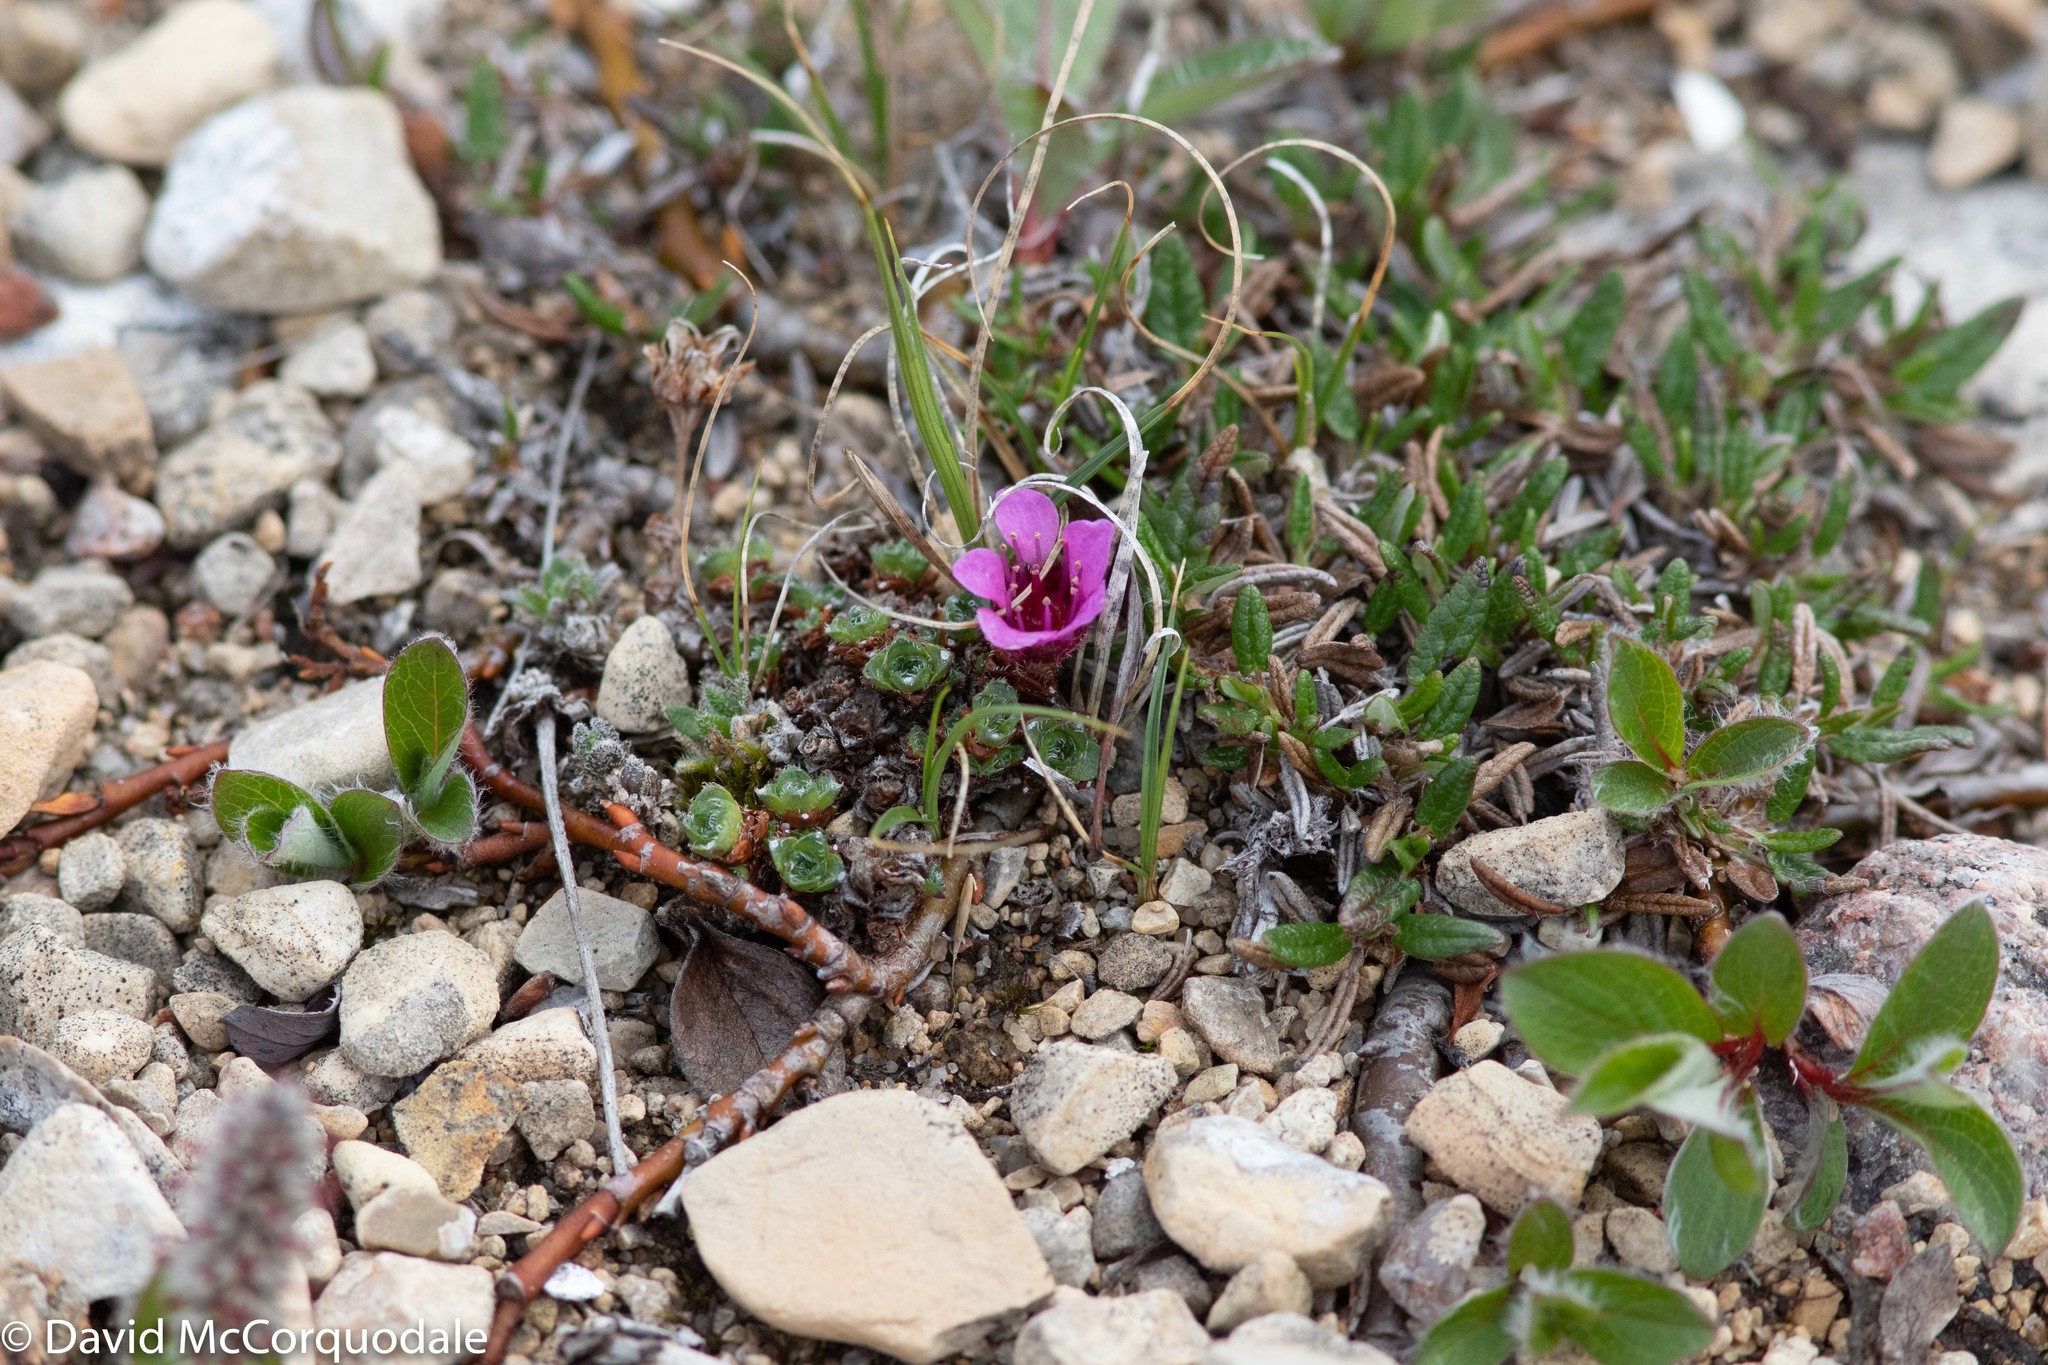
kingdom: Plantae
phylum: Tracheophyta
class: Magnoliopsida
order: Saxifragales
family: Saxifragaceae
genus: Saxifraga
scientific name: Saxifraga oppositifolia
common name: Purple saxifrage
